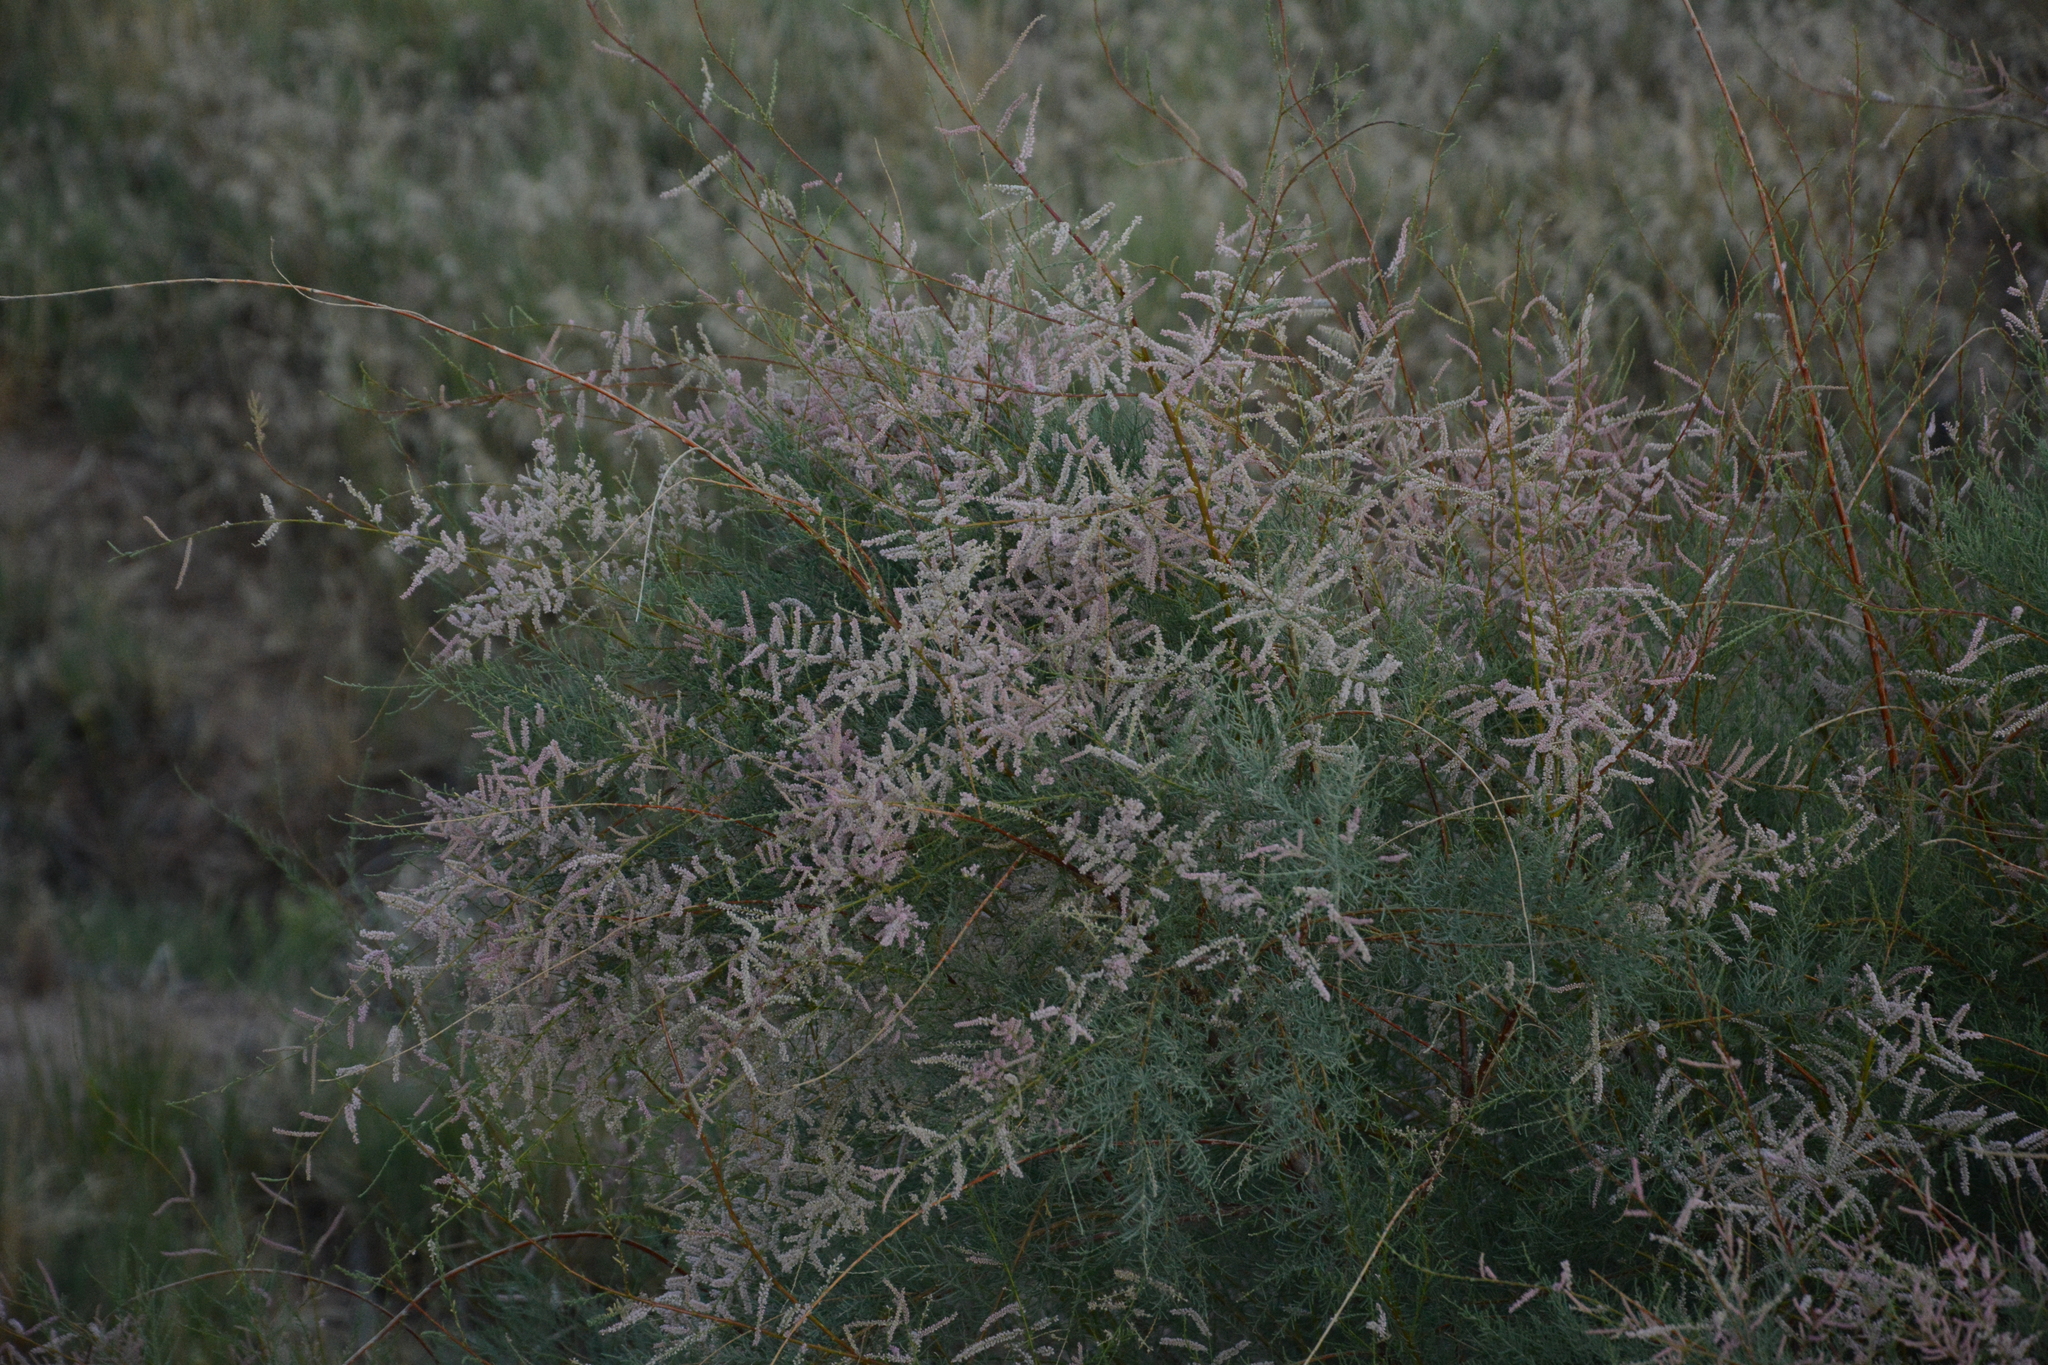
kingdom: Plantae
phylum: Tracheophyta
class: Magnoliopsida
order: Caryophyllales
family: Tamaricaceae
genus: Tamarix
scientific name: Tamarix chinensis
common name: Chinese tamarisk
